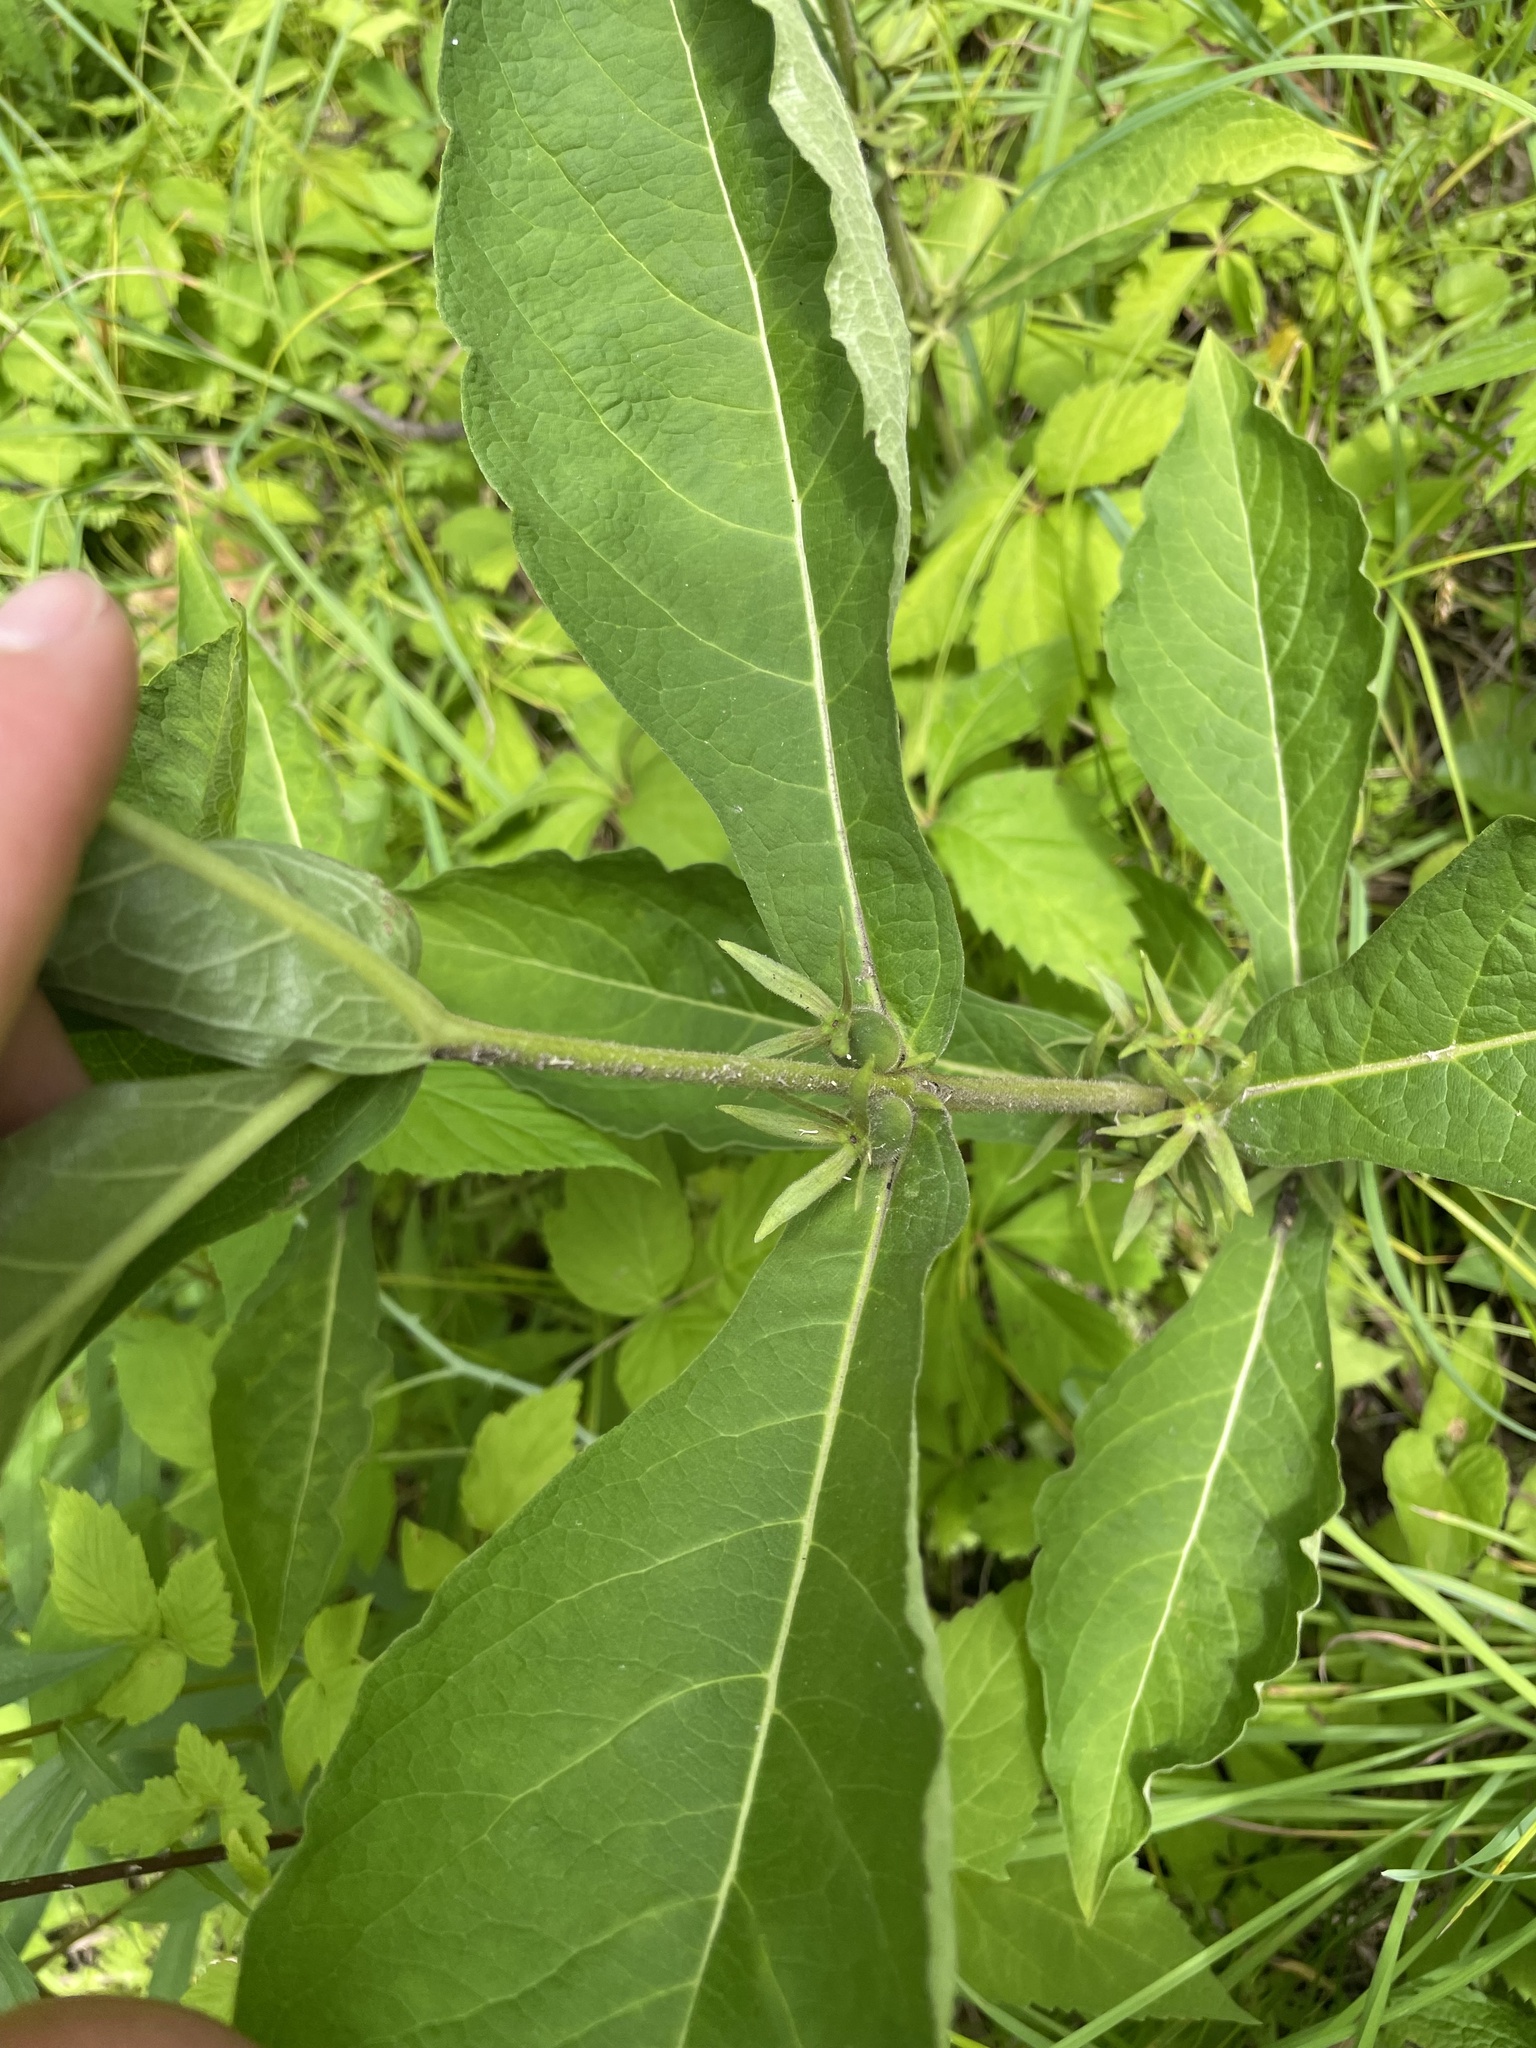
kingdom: Plantae
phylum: Tracheophyta
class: Magnoliopsida
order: Dipsacales
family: Caprifoliaceae
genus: Triosteum
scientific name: Triosteum aurantiacum
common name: Coffee tinker's-weed
